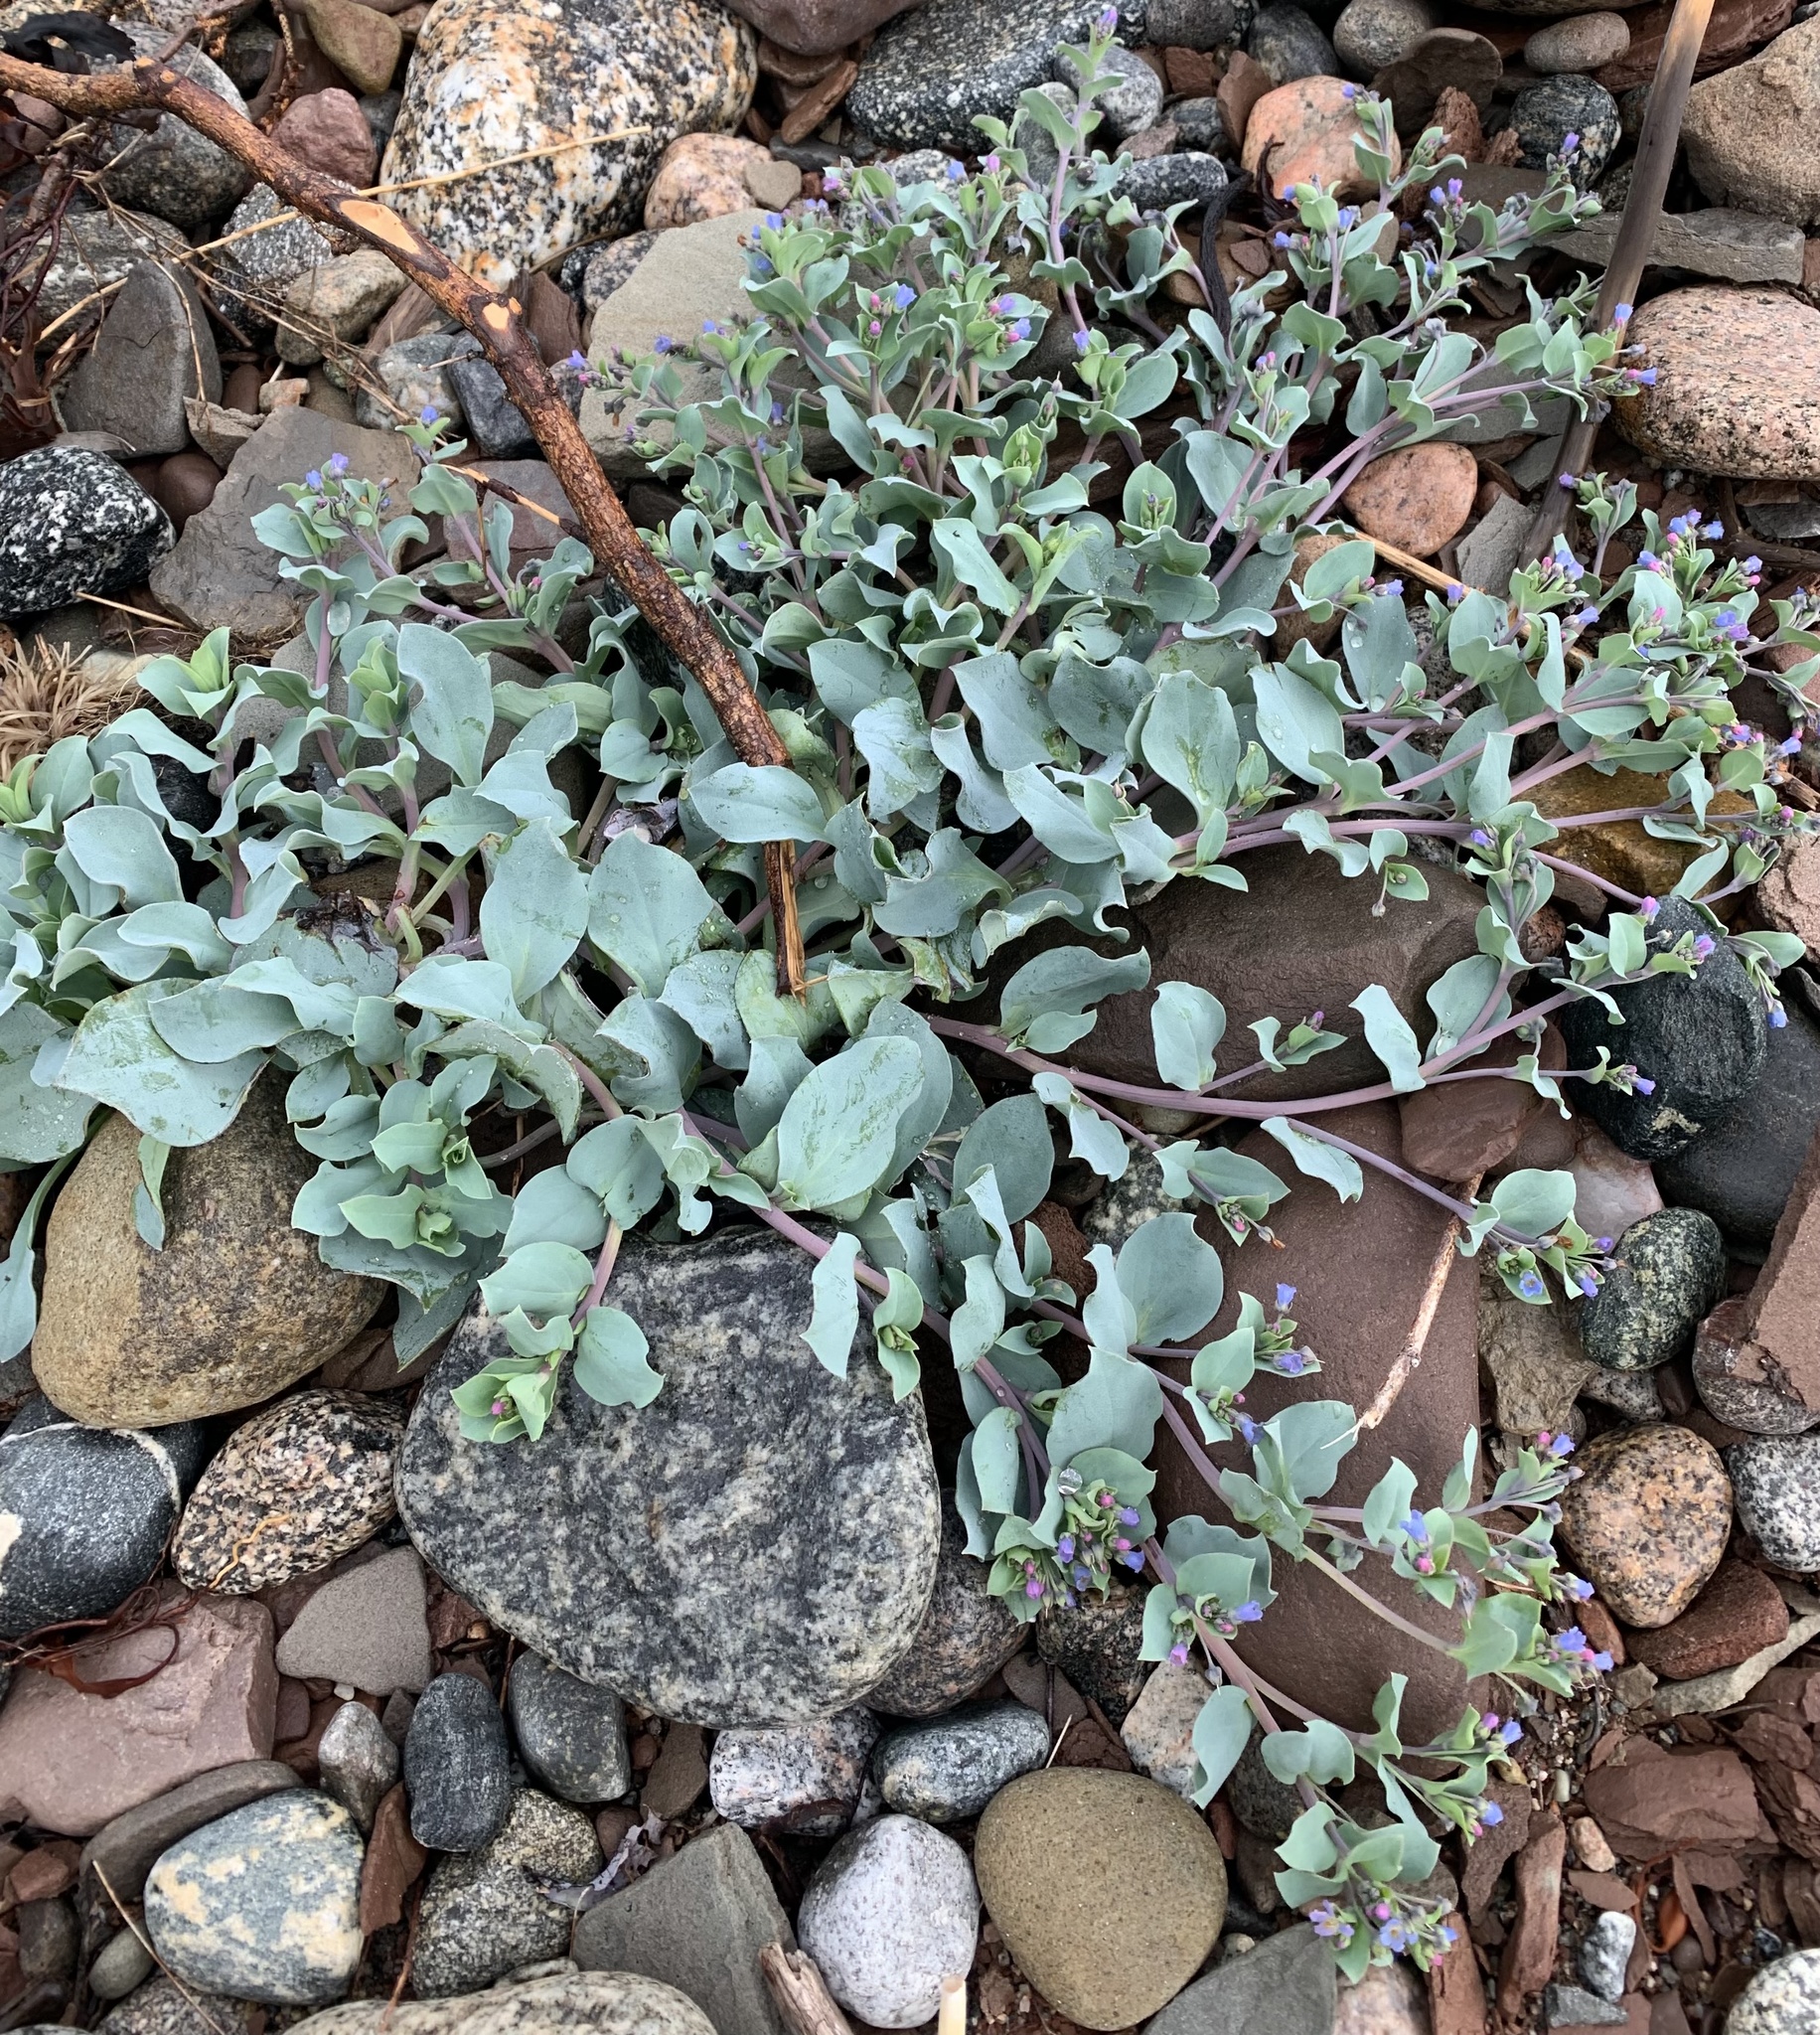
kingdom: Plantae
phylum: Tracheophyta
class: Magnoliopsida
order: Boraginales
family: Boraginaceae
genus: Mertensia
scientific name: Mertensia maritima
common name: Oysterplant
